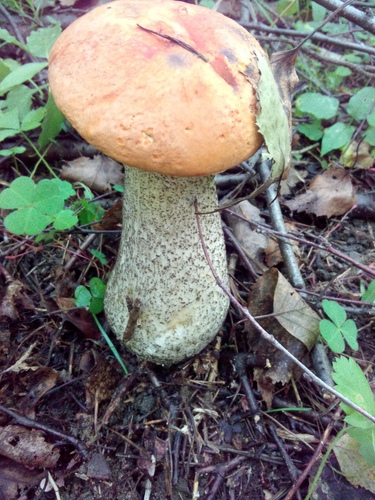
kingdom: Fungi
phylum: Basidiomycota
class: Agaricomycetes
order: Boletales
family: Boletaceae
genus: Leccinum
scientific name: Leccinum versipelle
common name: Orange birch bolete
